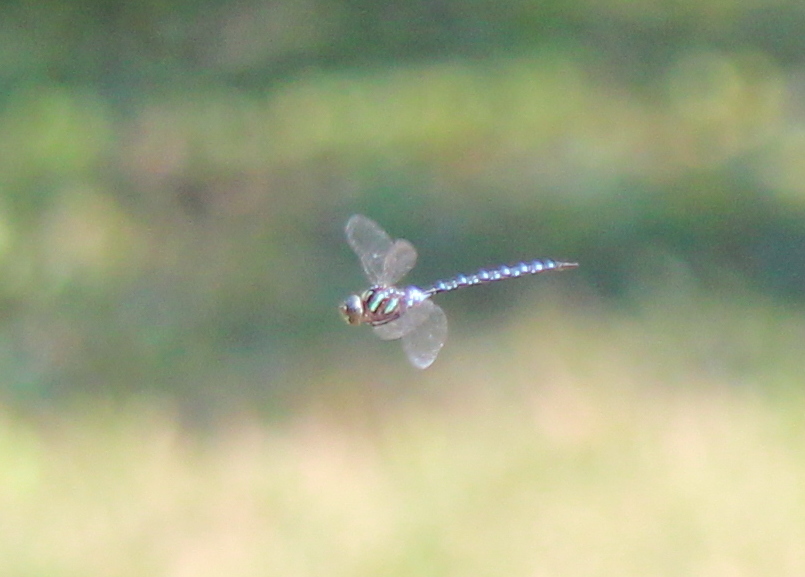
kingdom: Animalia
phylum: Arthropoda
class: Insecta
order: Odonata
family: Aeshnidae
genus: Aeshna
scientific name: Aeshna tuberculifera
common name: Aeschne à tubercules
